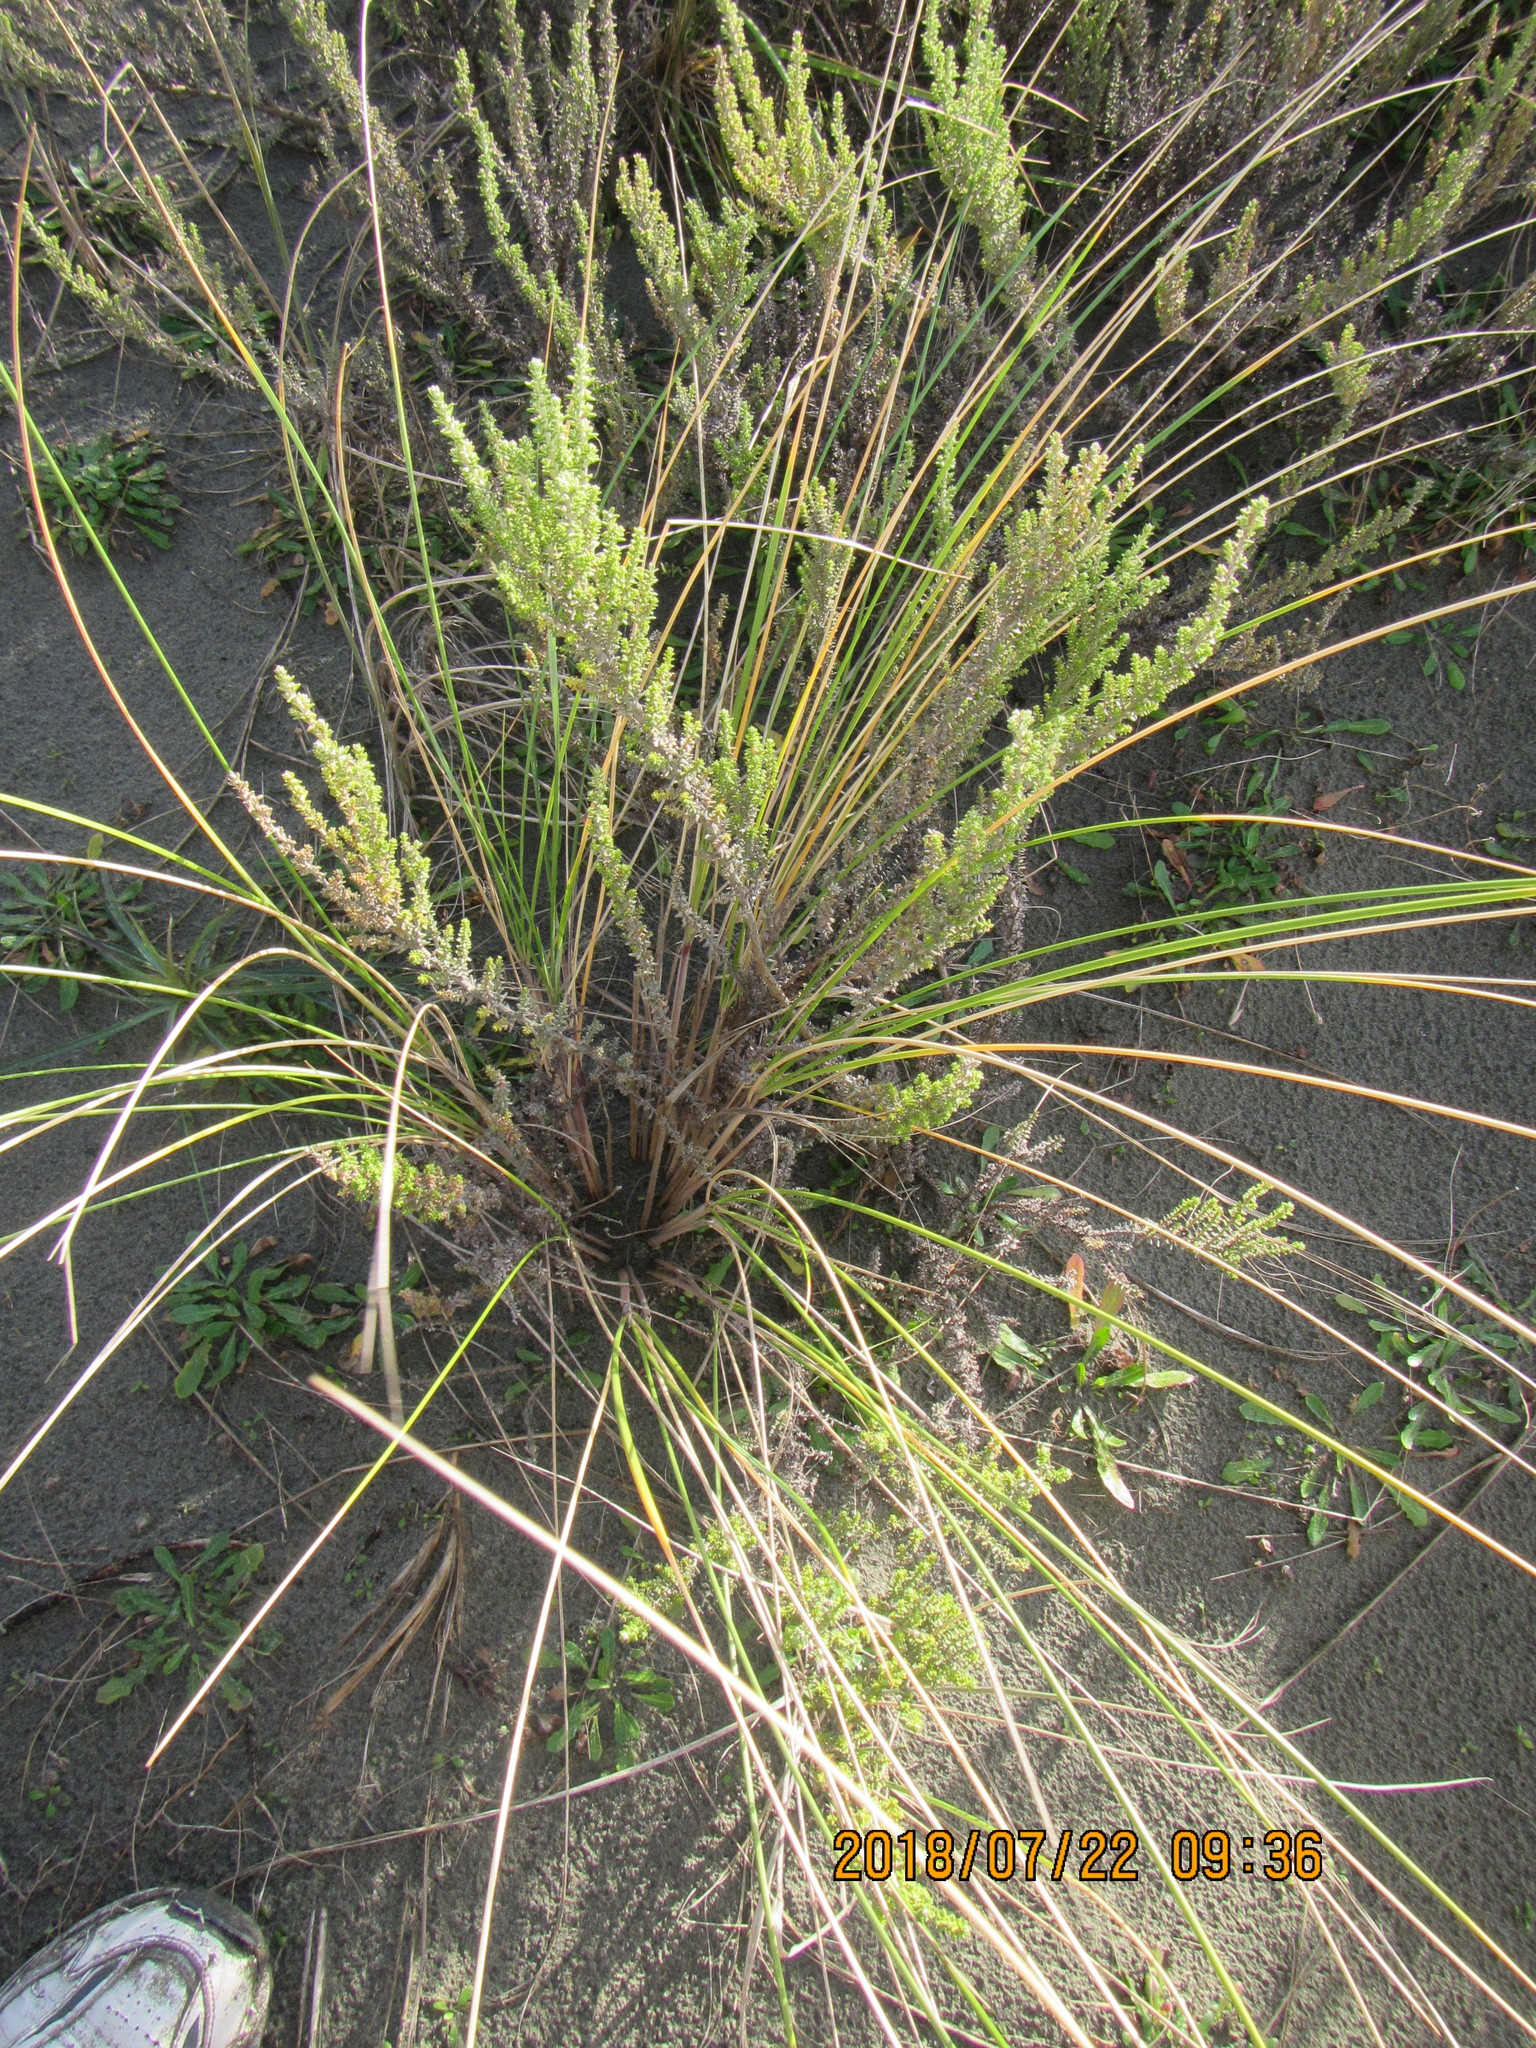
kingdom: Plantae
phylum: Tracheophyta
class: Magnoliopsida
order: Asterales
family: Asteraceae
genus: Ozothamnus
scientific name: Ozothamnus leptophyllus
